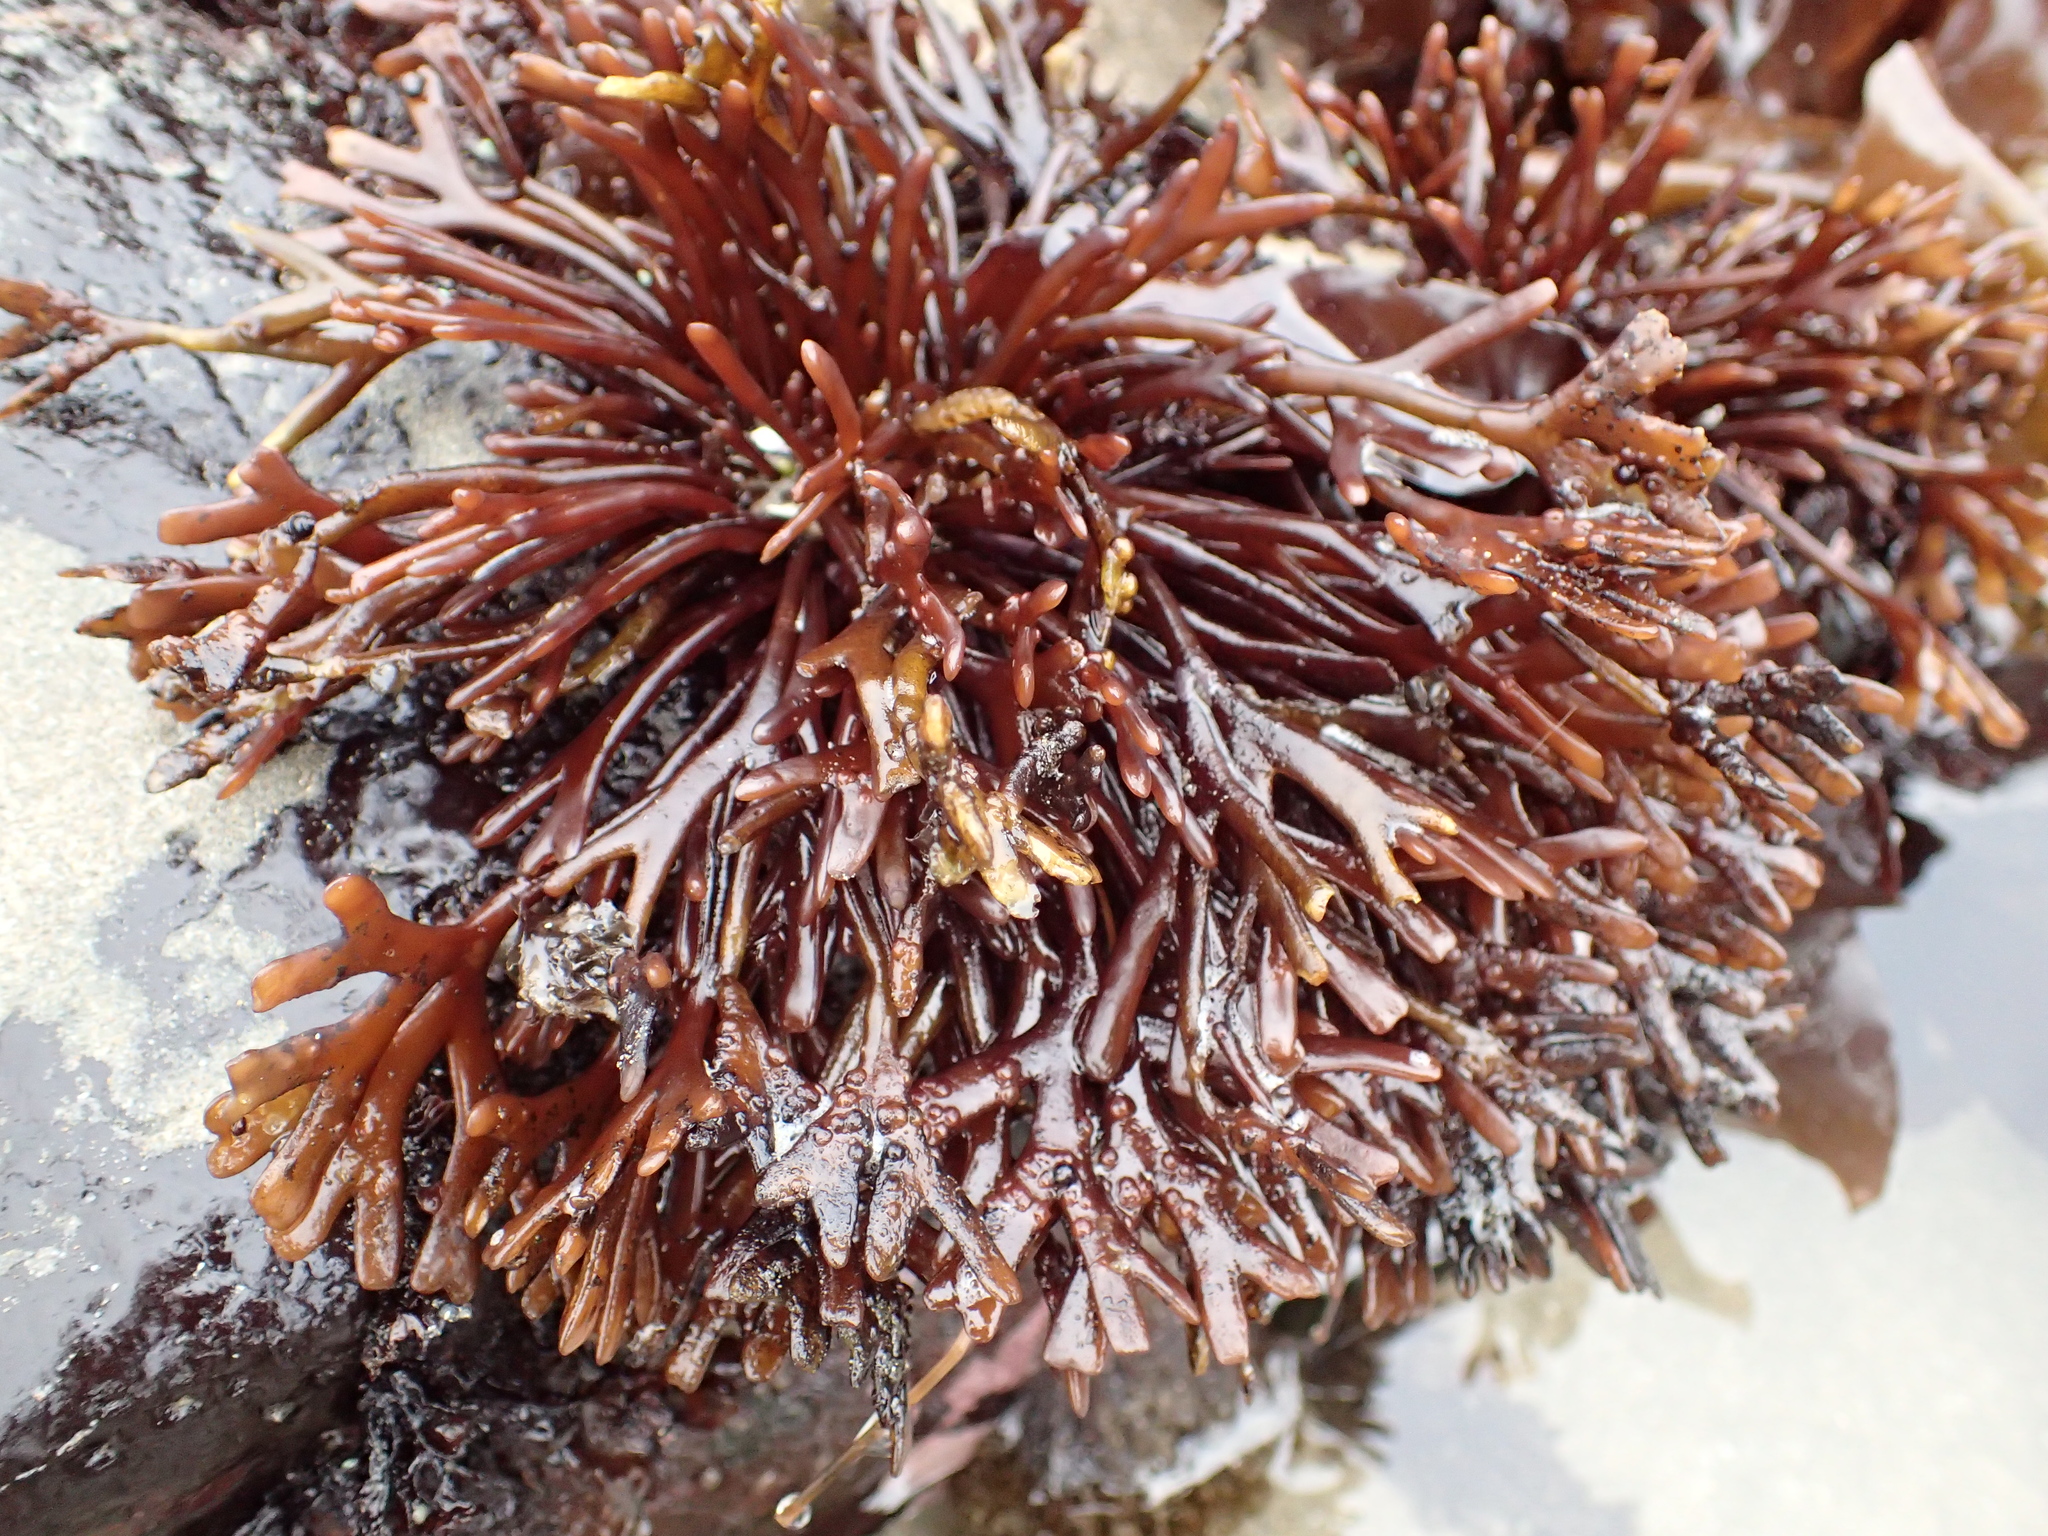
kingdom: Plantae
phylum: Rhodophyta
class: Florideophyceae
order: Gigartinales
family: Phyllophoraceae
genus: Ahnfeltiopsis
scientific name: Ahnfeltiopsis linearis
